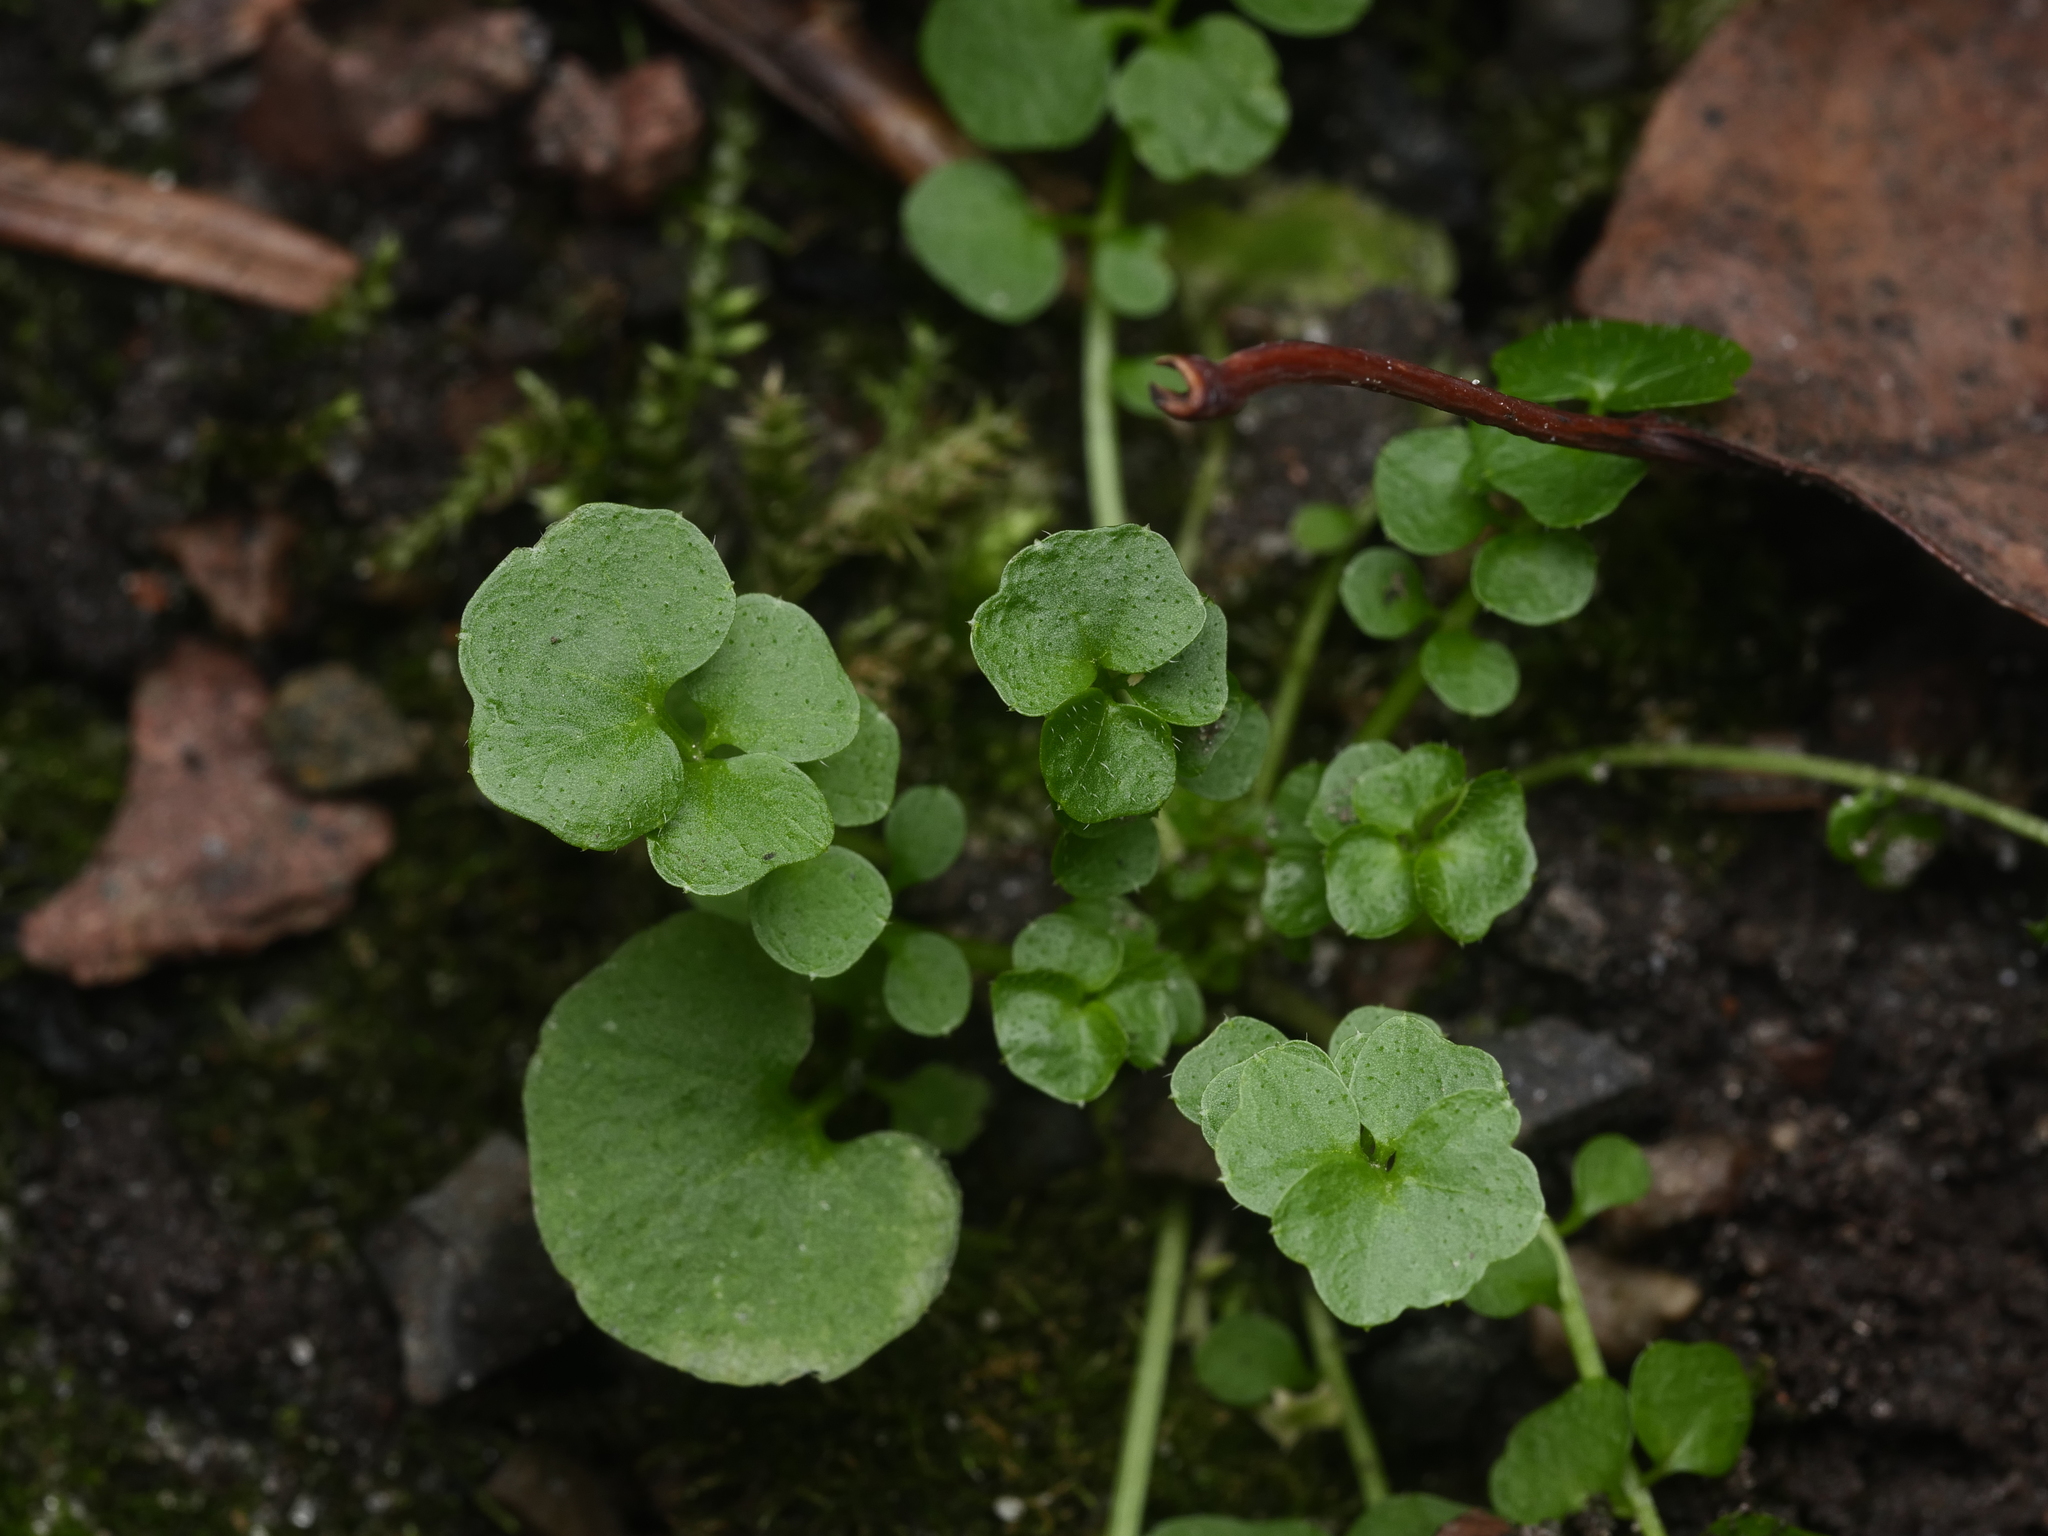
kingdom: Plantae
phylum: Tracheophyta
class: Magnoliopsida
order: Brassicales
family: Brassicaceae
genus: Cardamine
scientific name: Cardamine hirsuta
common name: Hairy bittercress
